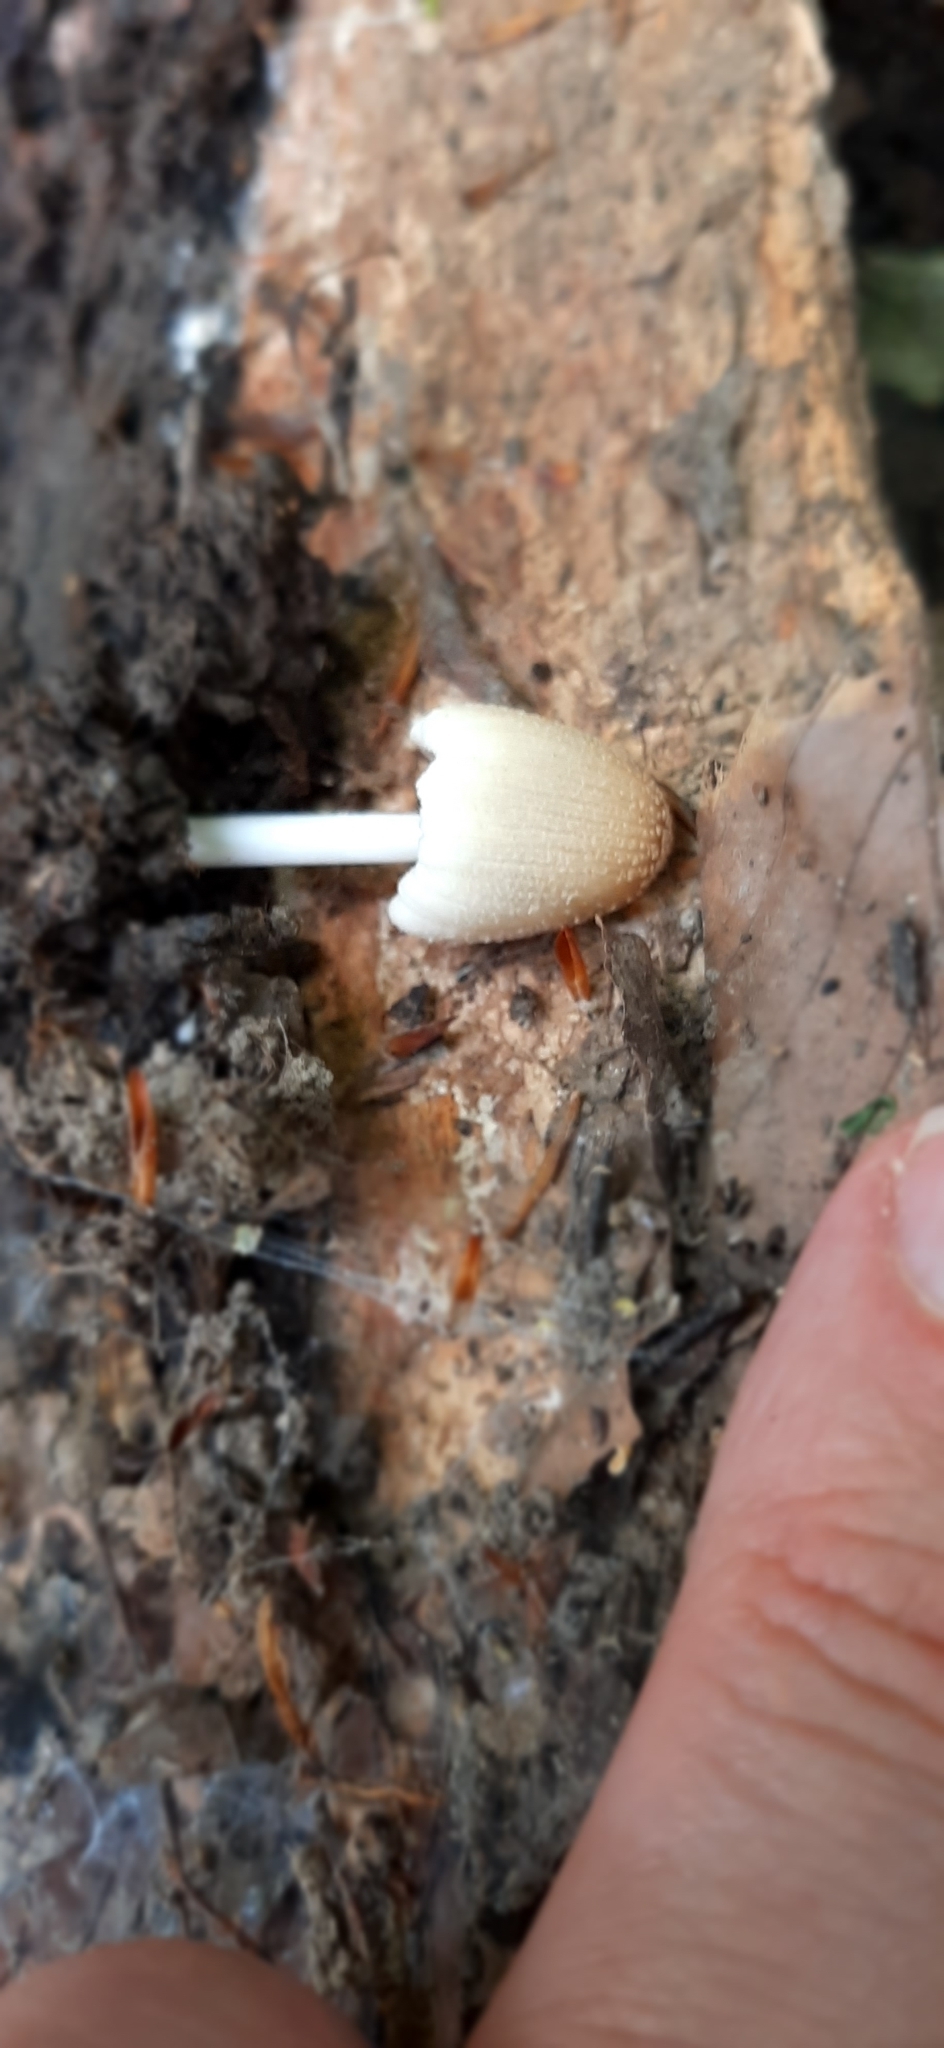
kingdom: Fungi
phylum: Basidiomycota
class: Agaricomycetes
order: Agaricales
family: Psathyrellaceae
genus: Coprinellus
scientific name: Coprinellus
